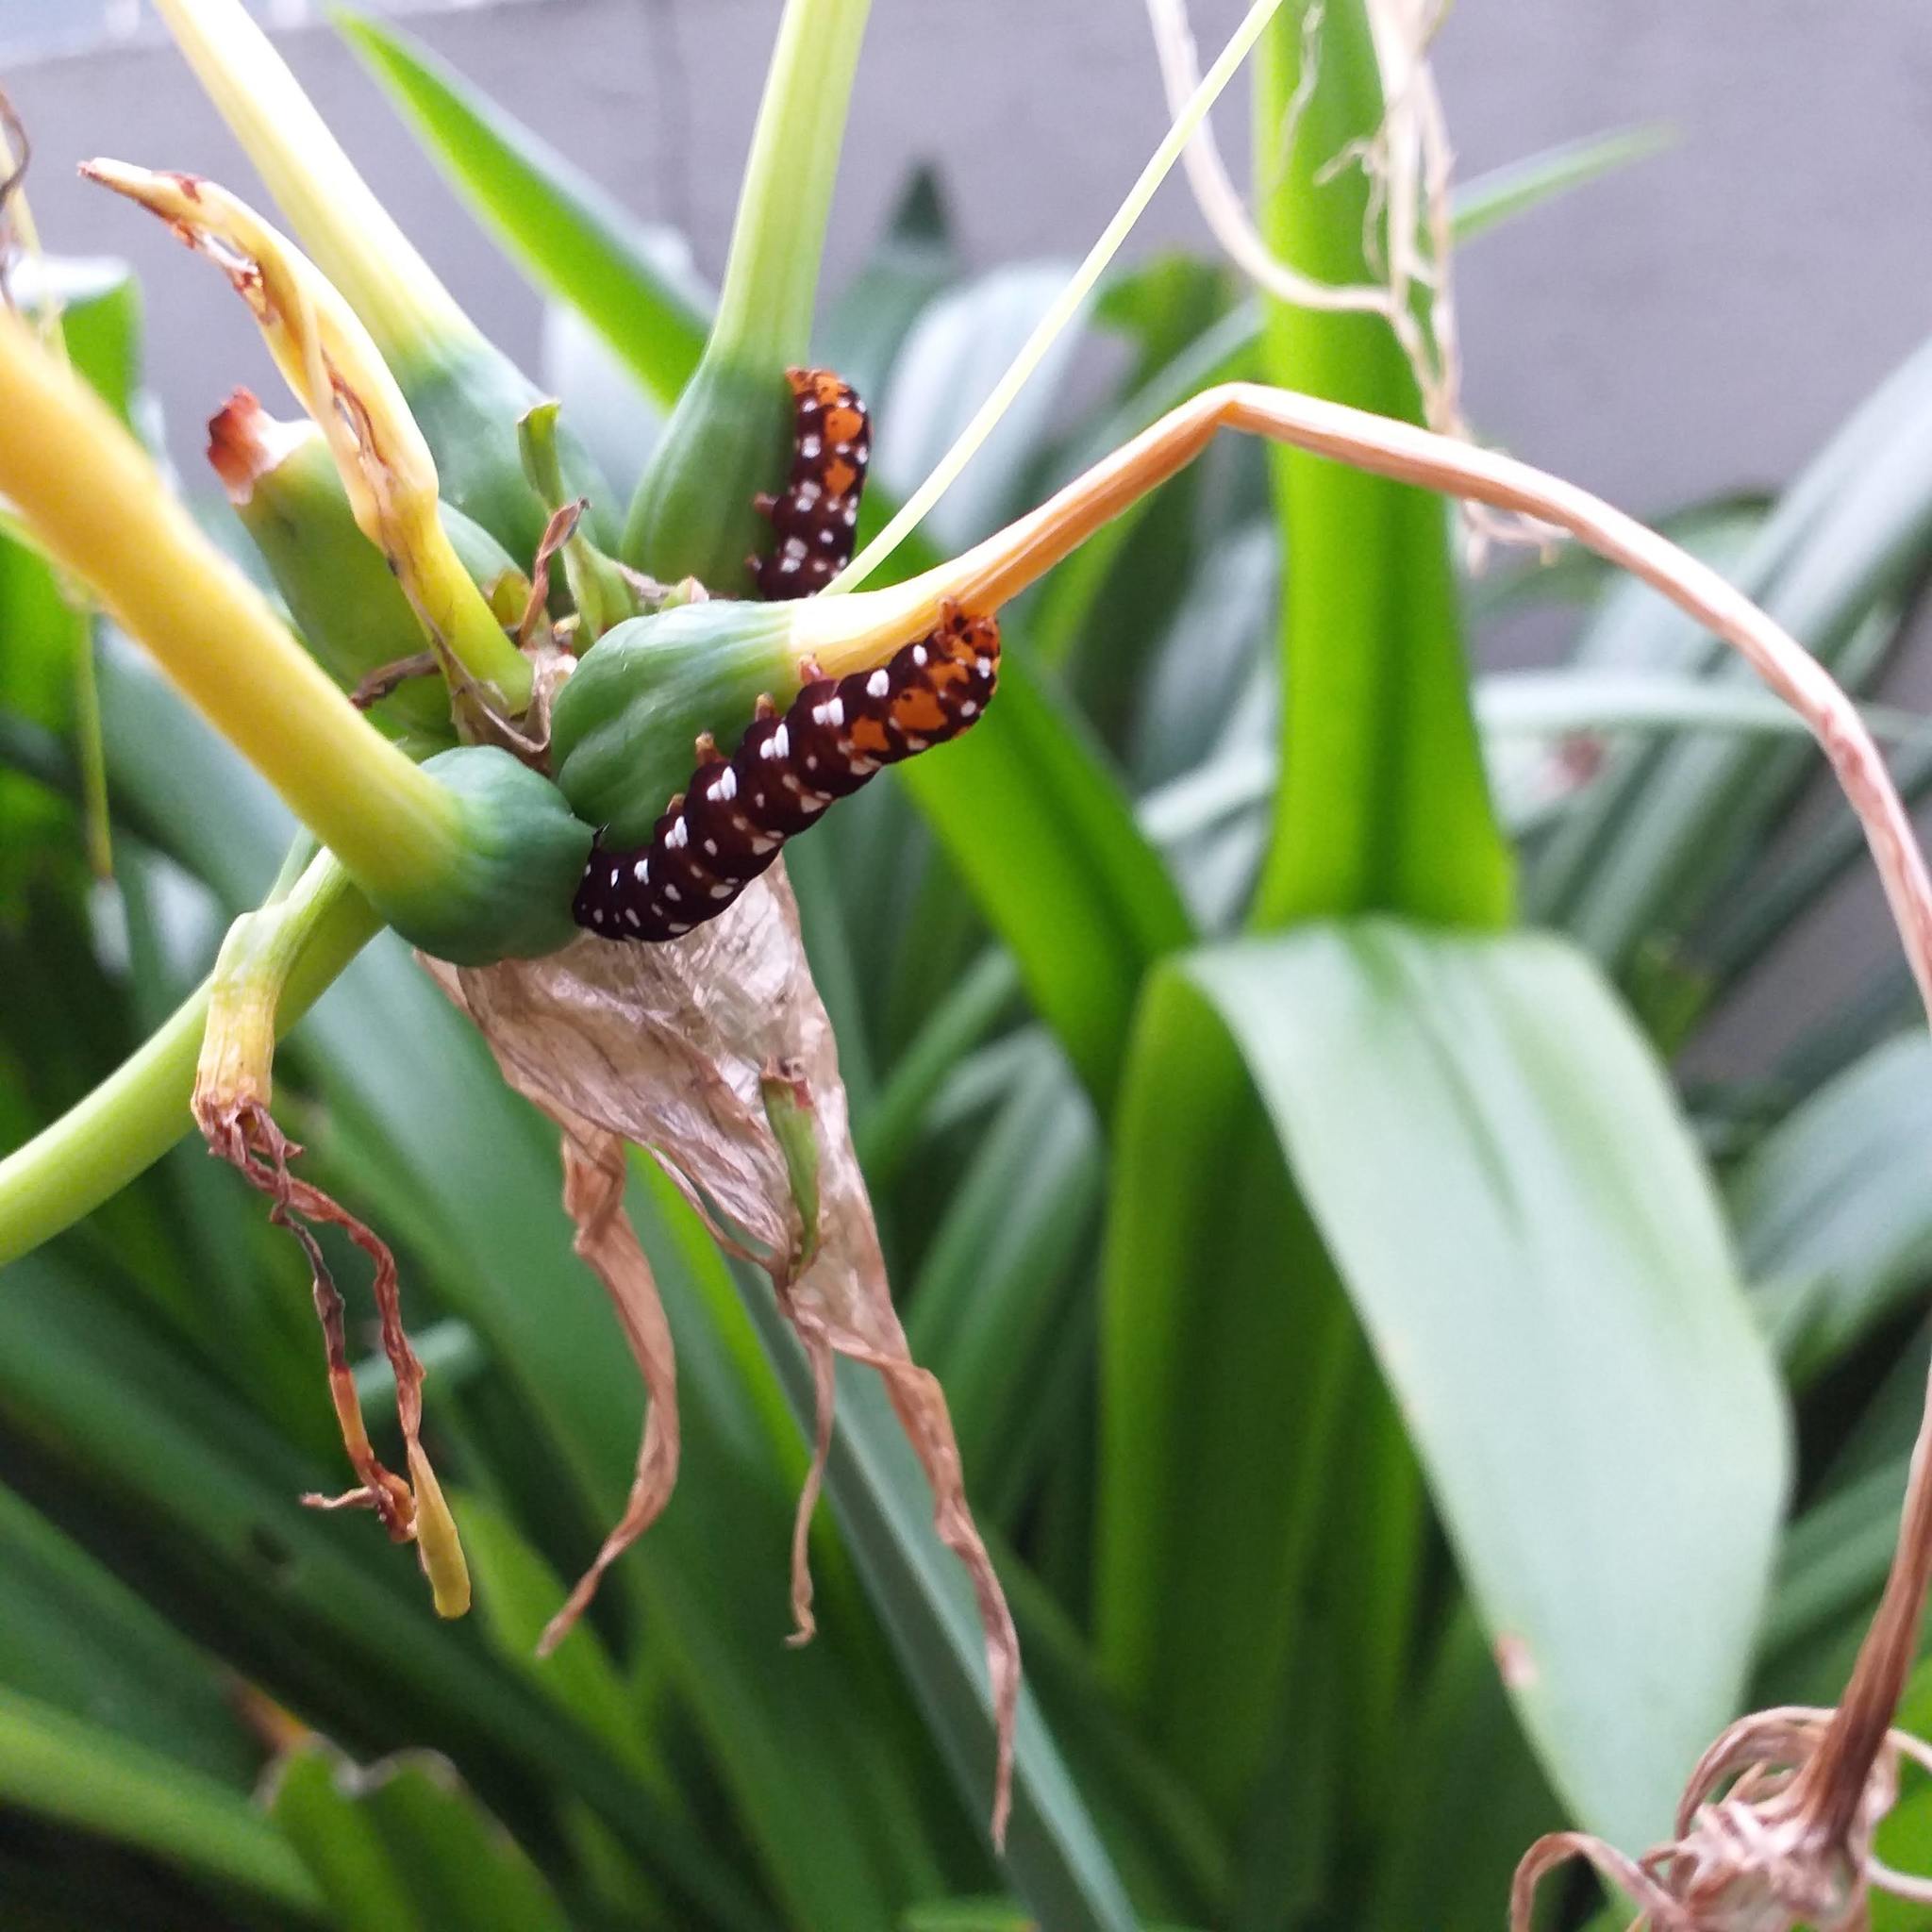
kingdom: Animalia
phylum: Arthropoda
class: Insecta
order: Lepidoptera
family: Noctuidae
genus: Polytela
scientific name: Polytela gloriosae
